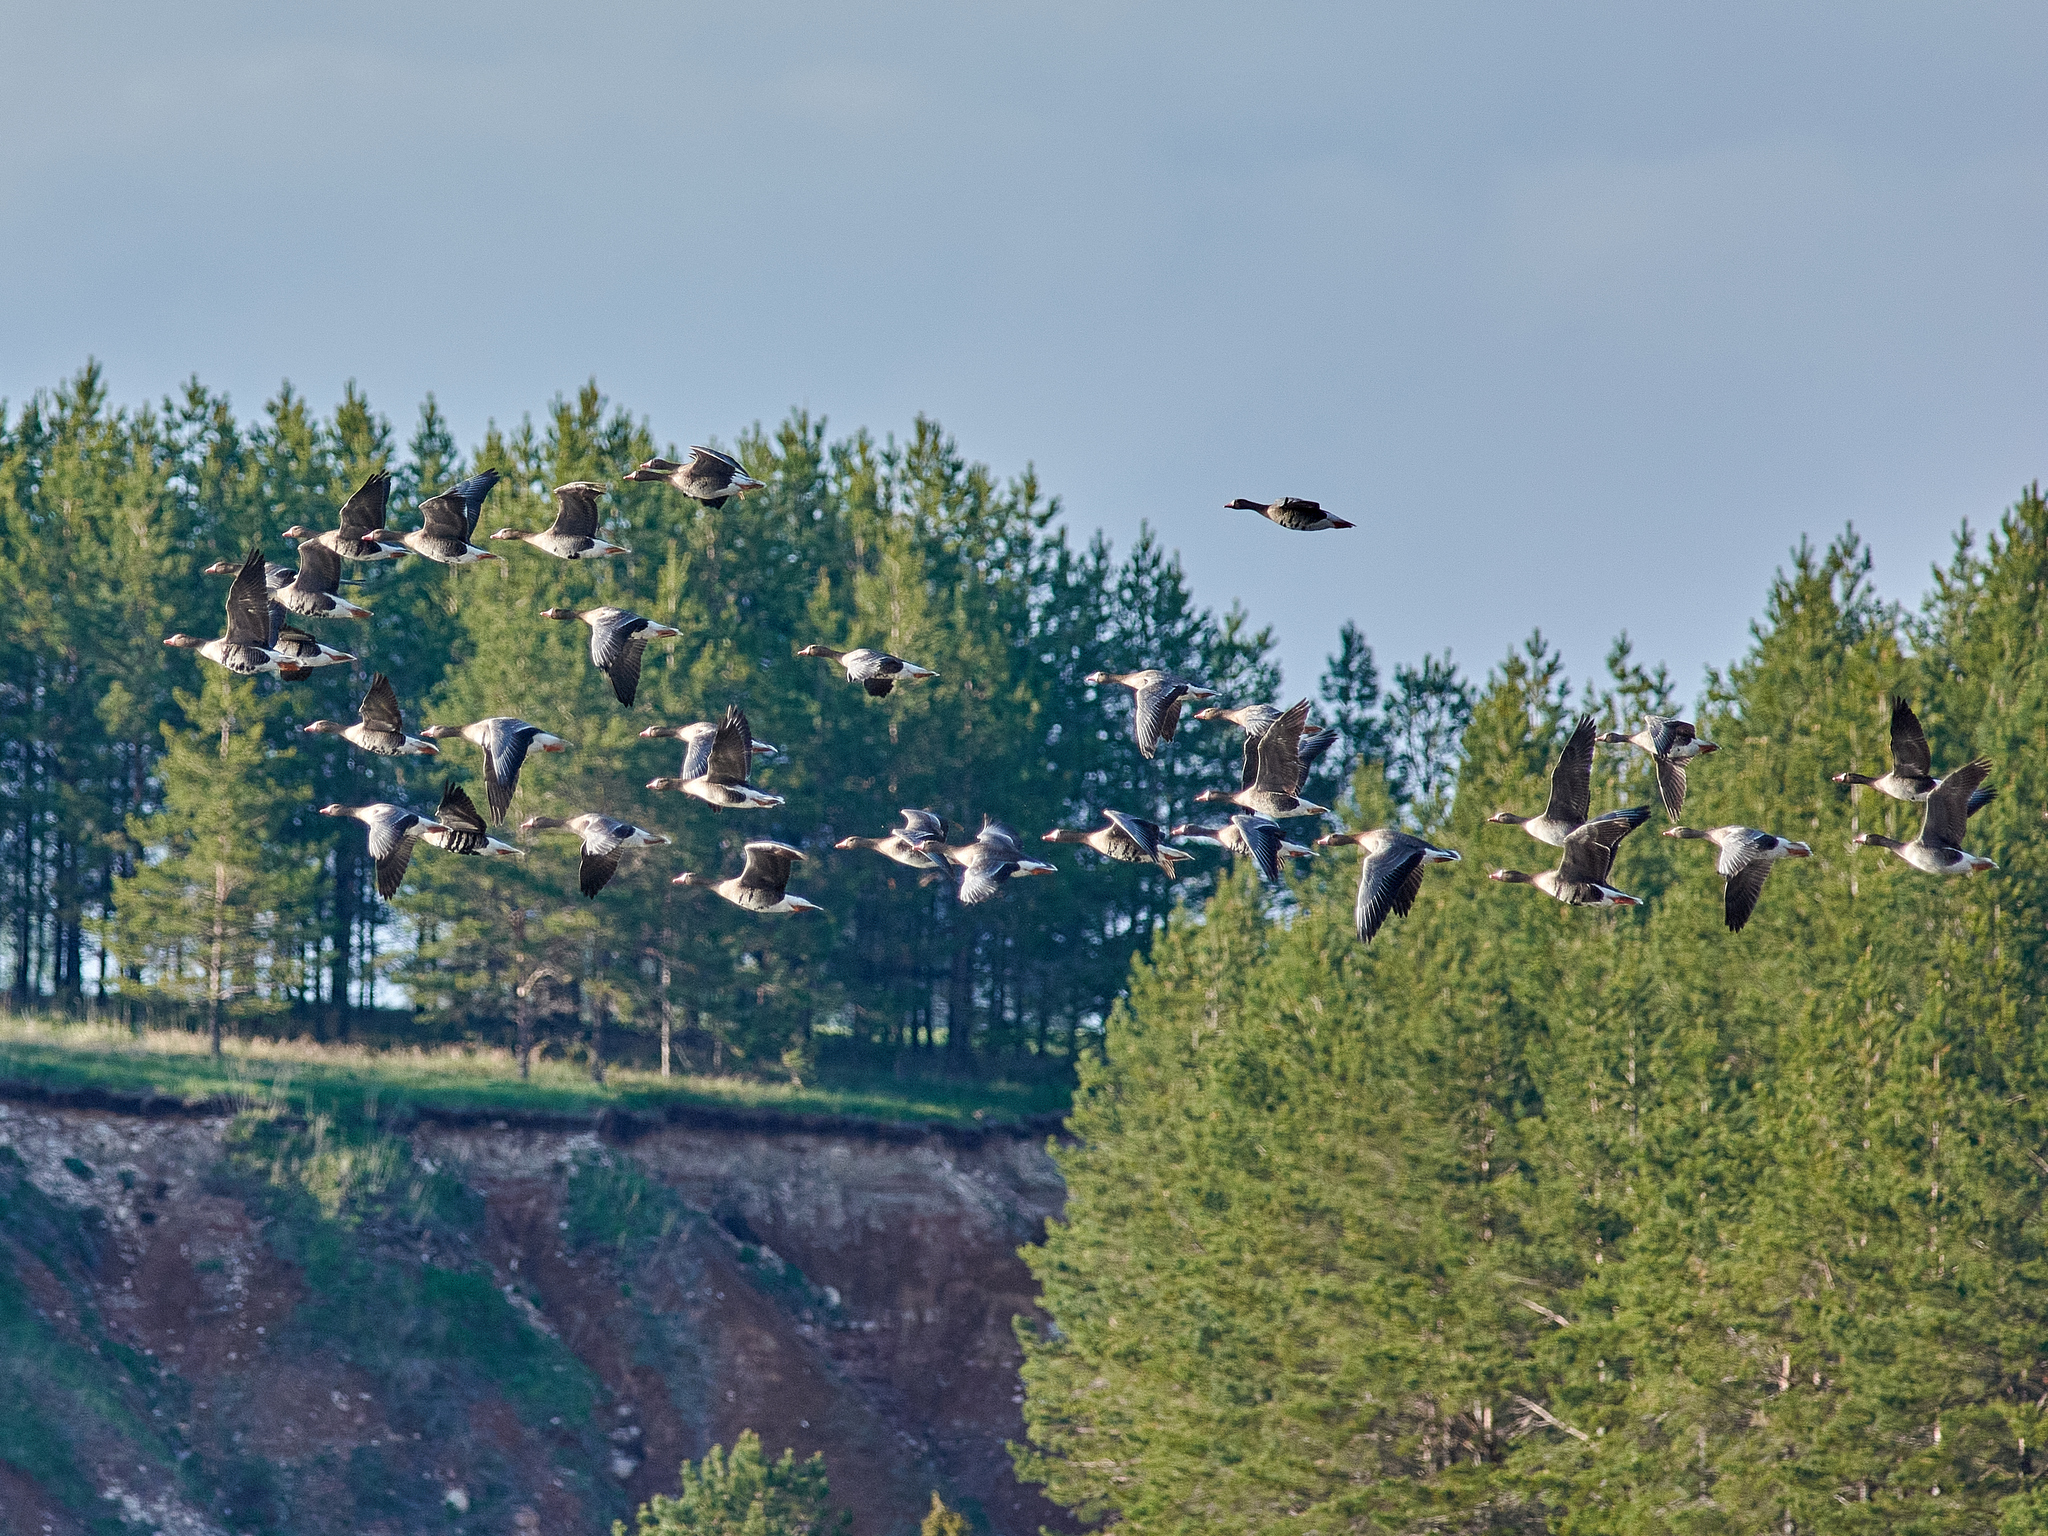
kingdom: Animalia
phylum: Chordata
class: Aves
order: Anseriformes
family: Anatidae
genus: Anser
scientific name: Anser albifrons
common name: Greater white-fronted goose
